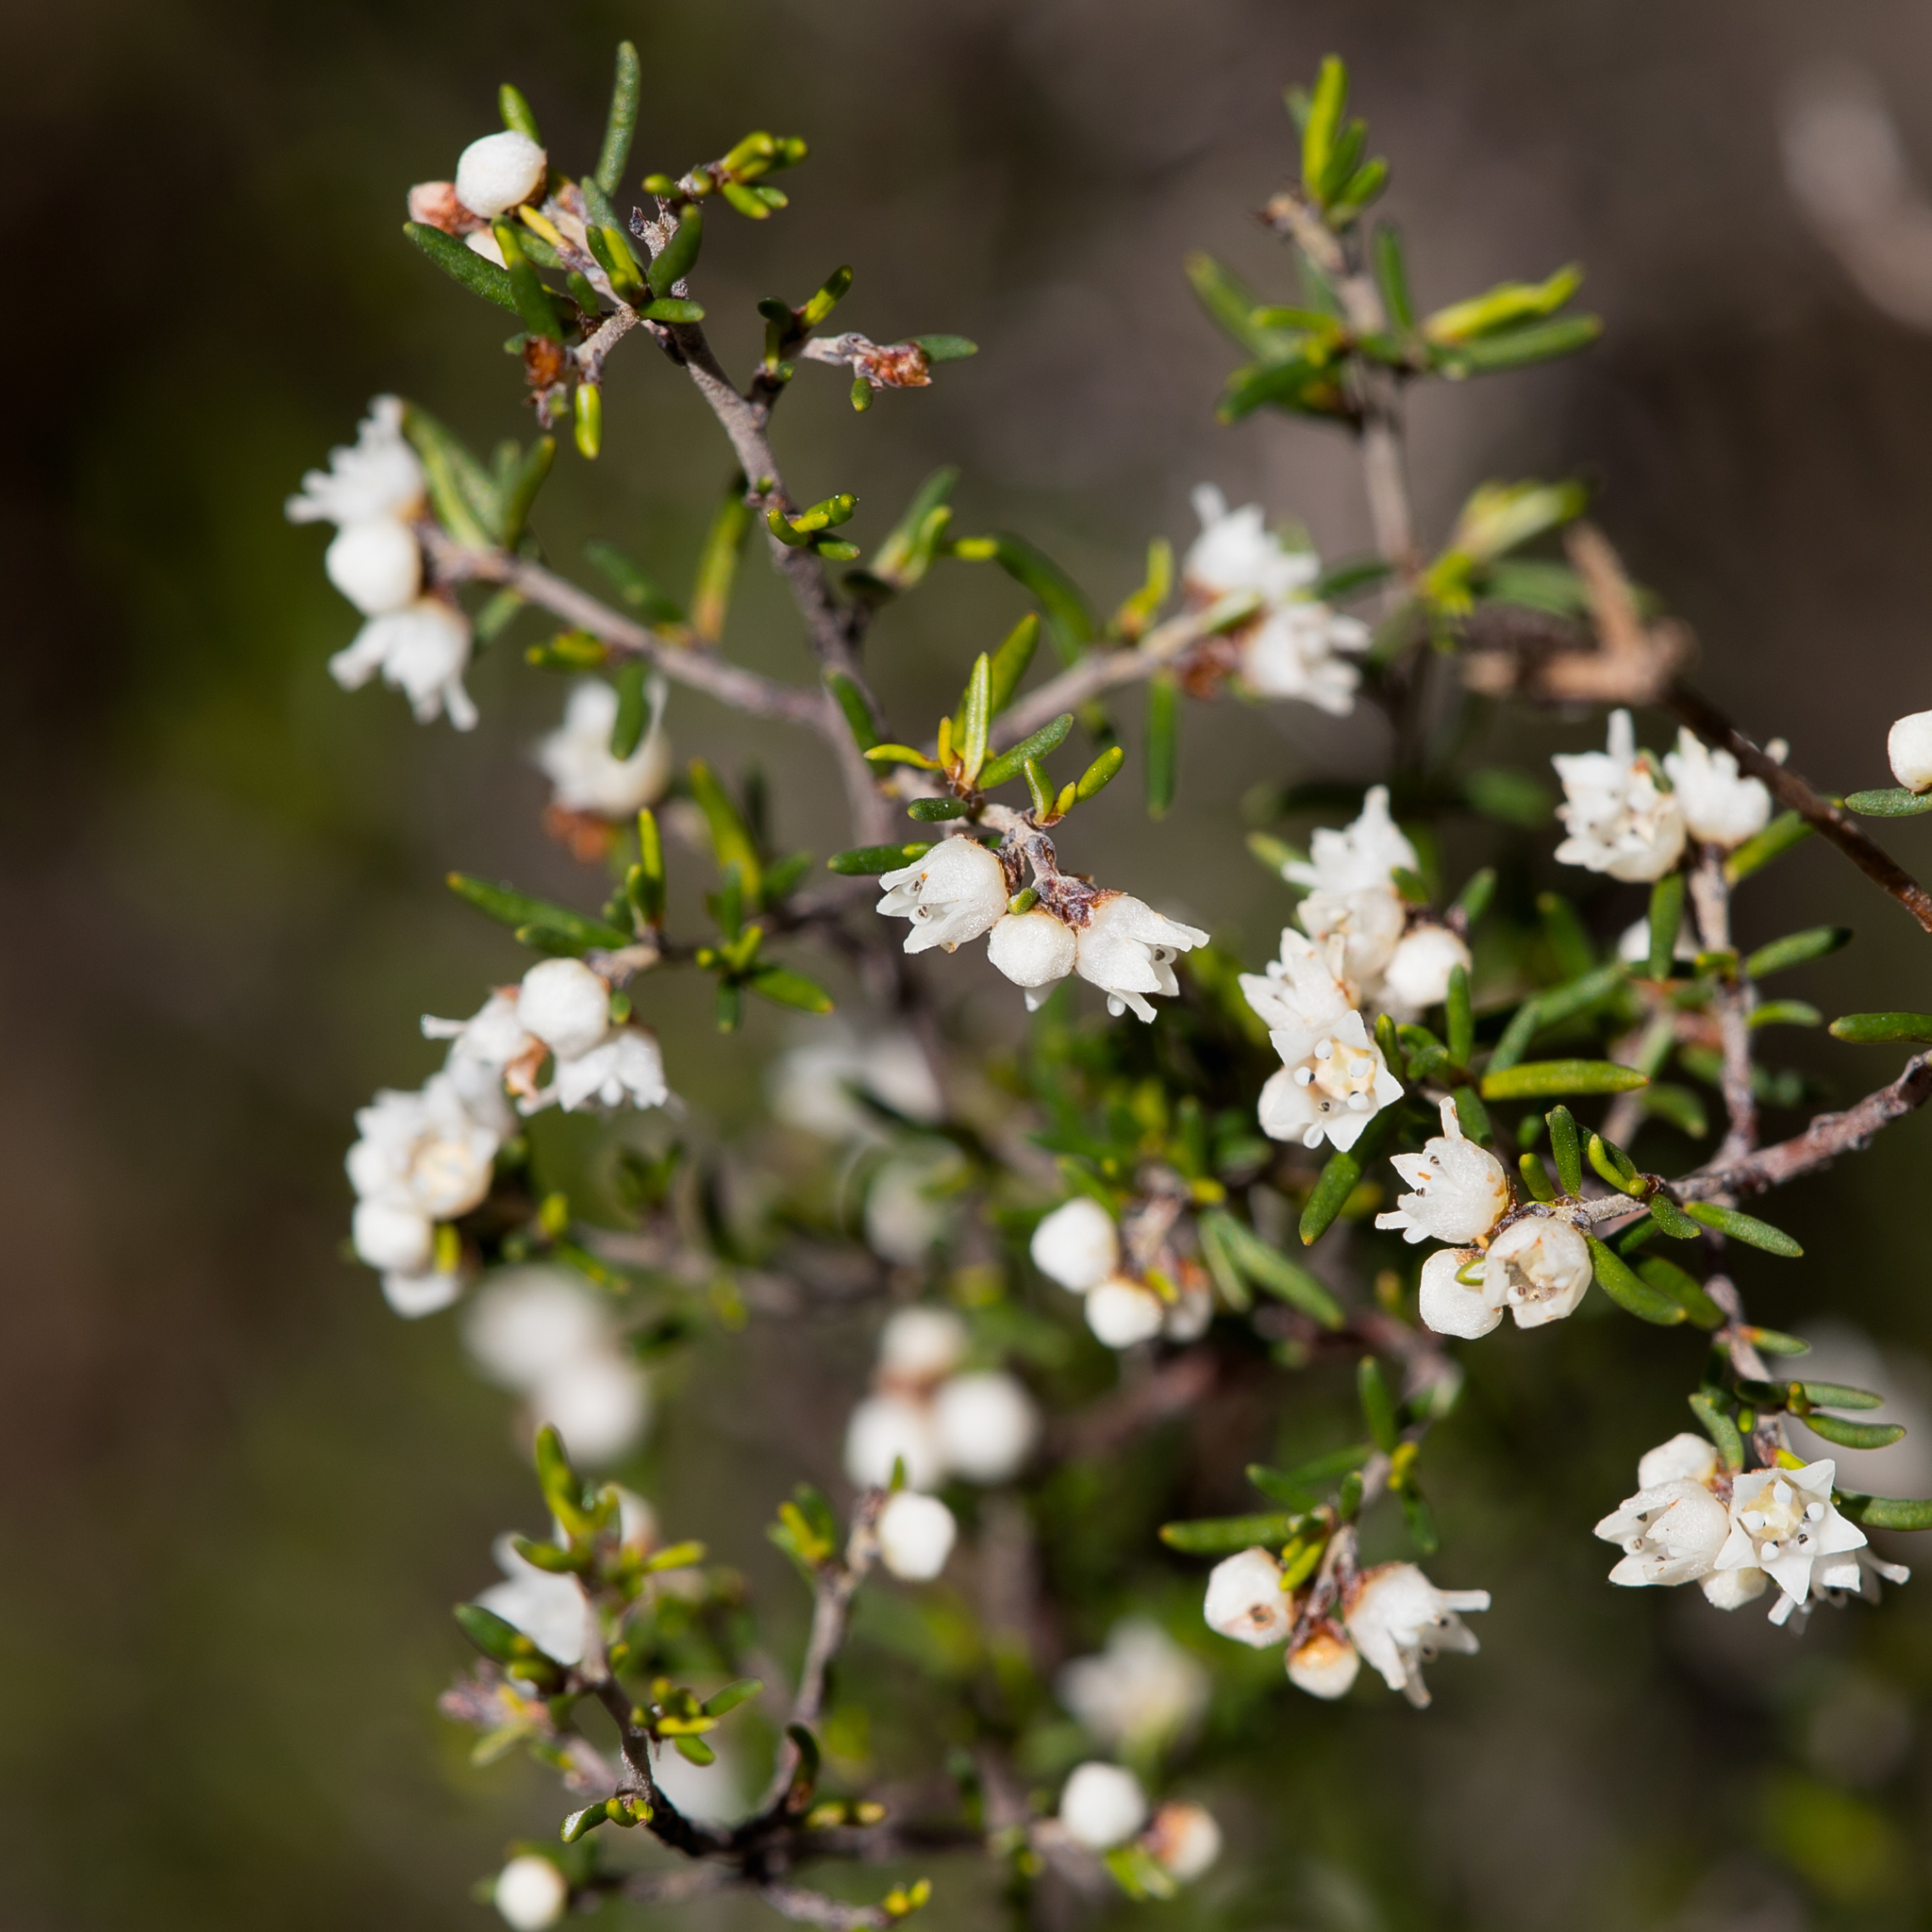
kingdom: Plantae
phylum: Tracheophyta
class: Magnoliopsida
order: Rosales
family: Rhamnaceae
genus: Cryptandra
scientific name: Cryptandra tomentosa
